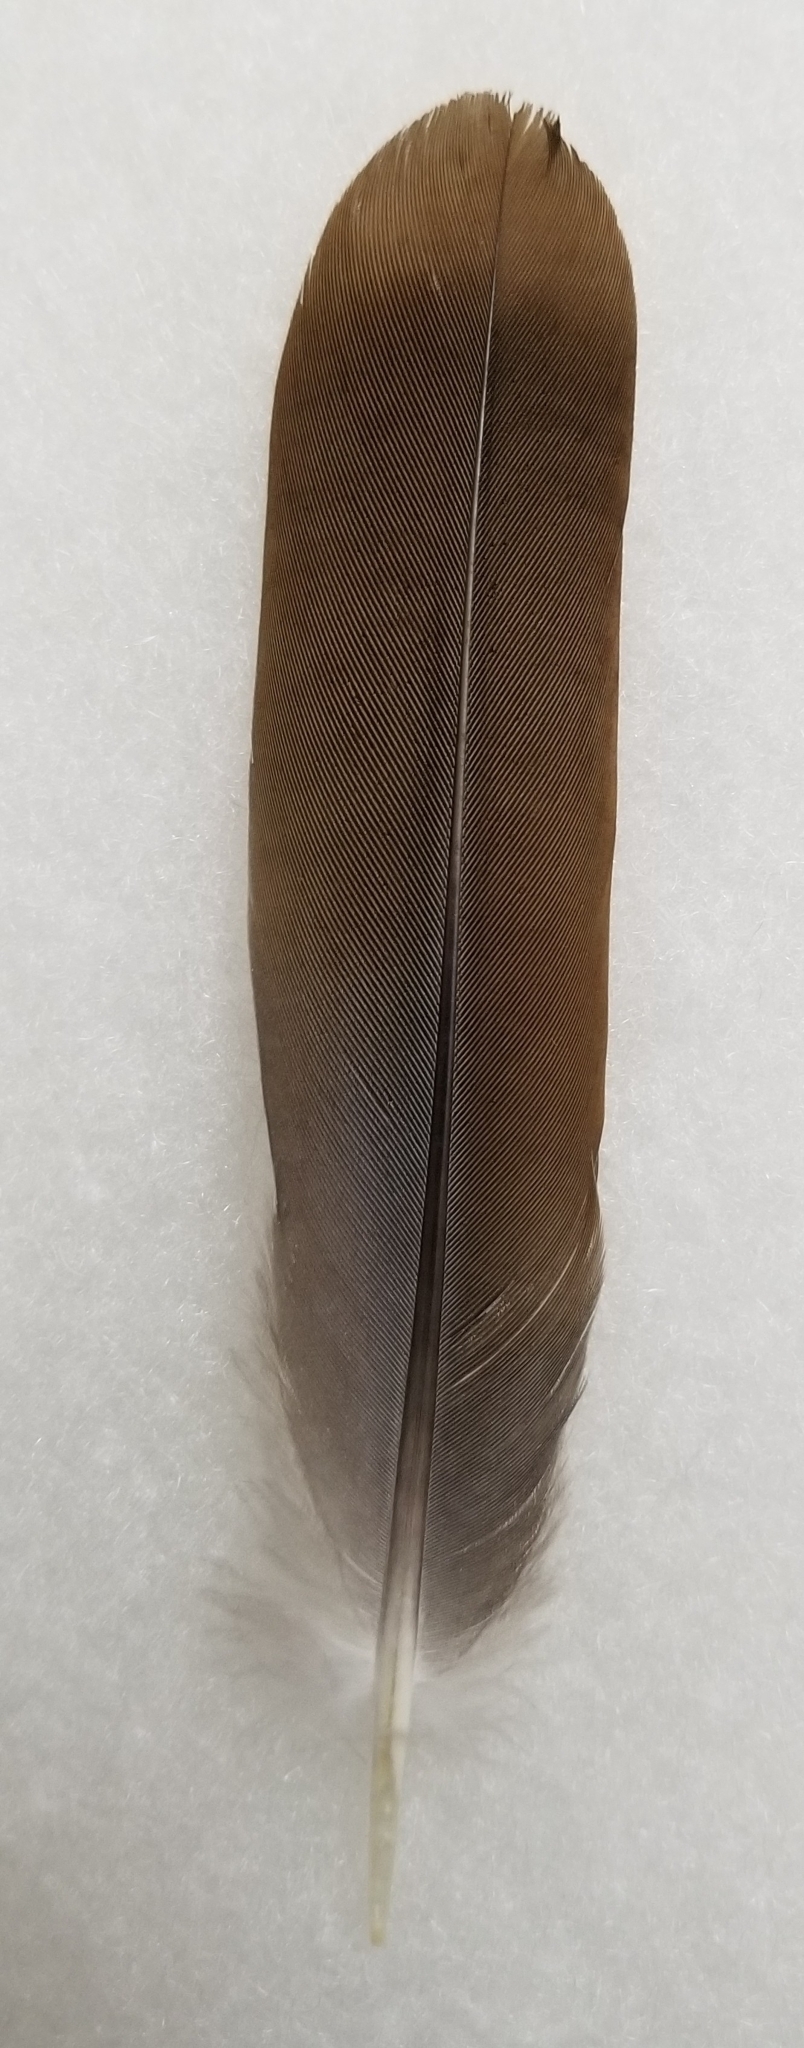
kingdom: Animalia
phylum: Chordata
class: Aves
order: Columbiformes
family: Columbidae
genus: Zenaida
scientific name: Zenaida asiatica
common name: White-winged dove
